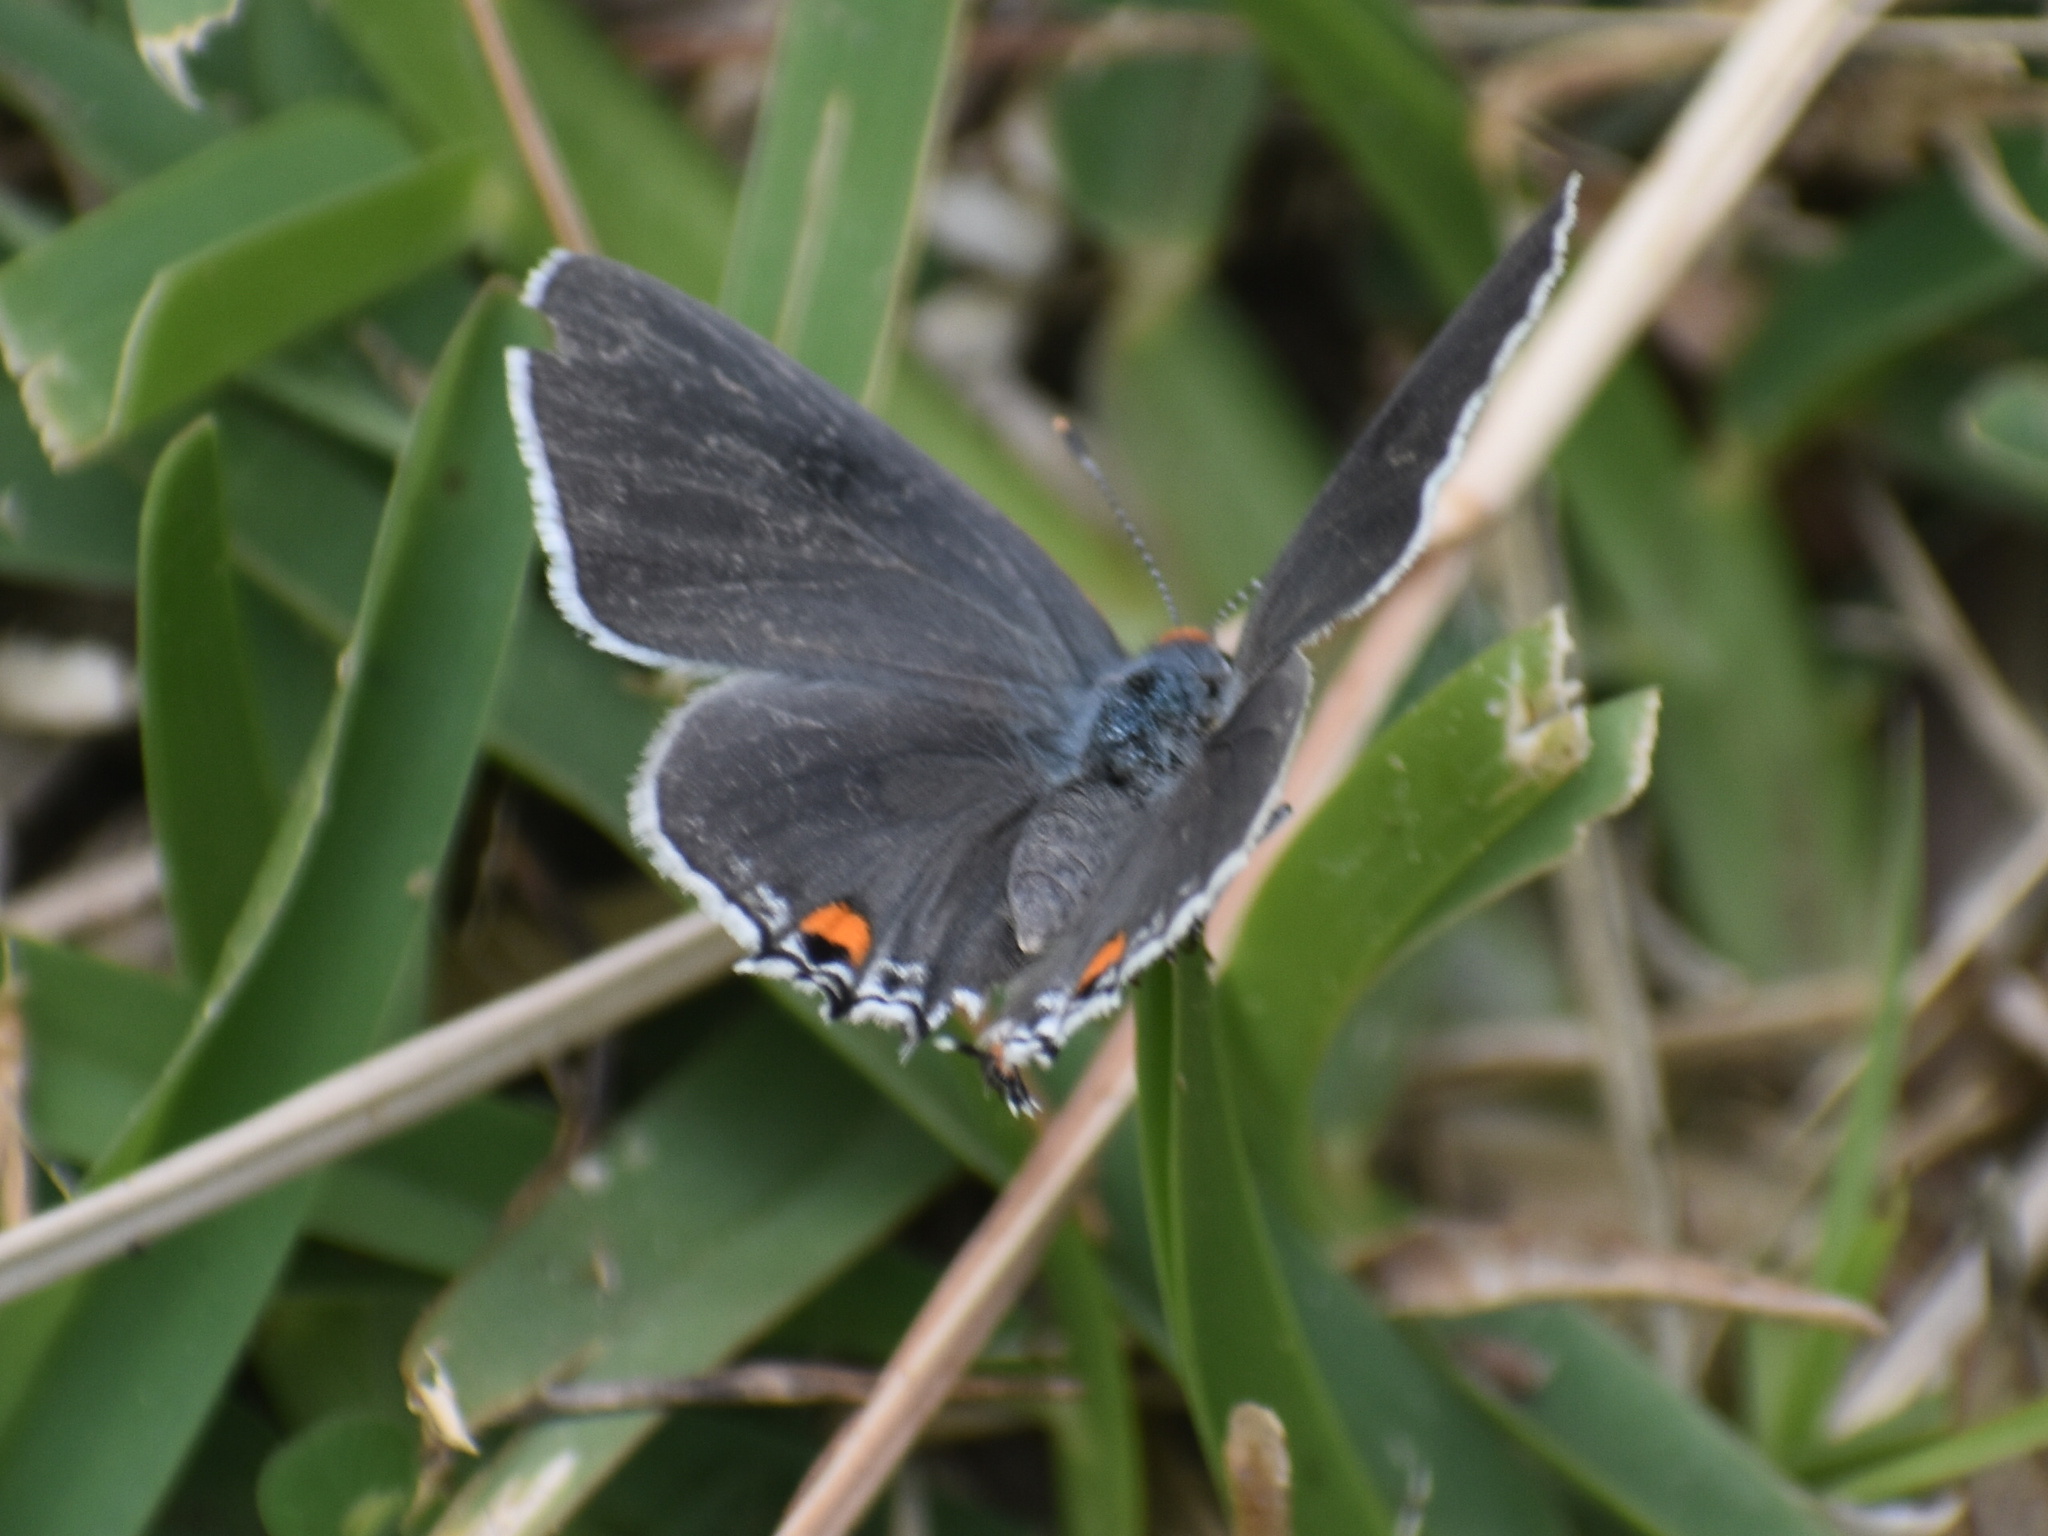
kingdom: Animalia
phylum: Arthropoda
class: Insecta
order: Lepidoptera
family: Lycaenidae
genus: Strymon
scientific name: Strymon melinus
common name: Gray hairstreak
